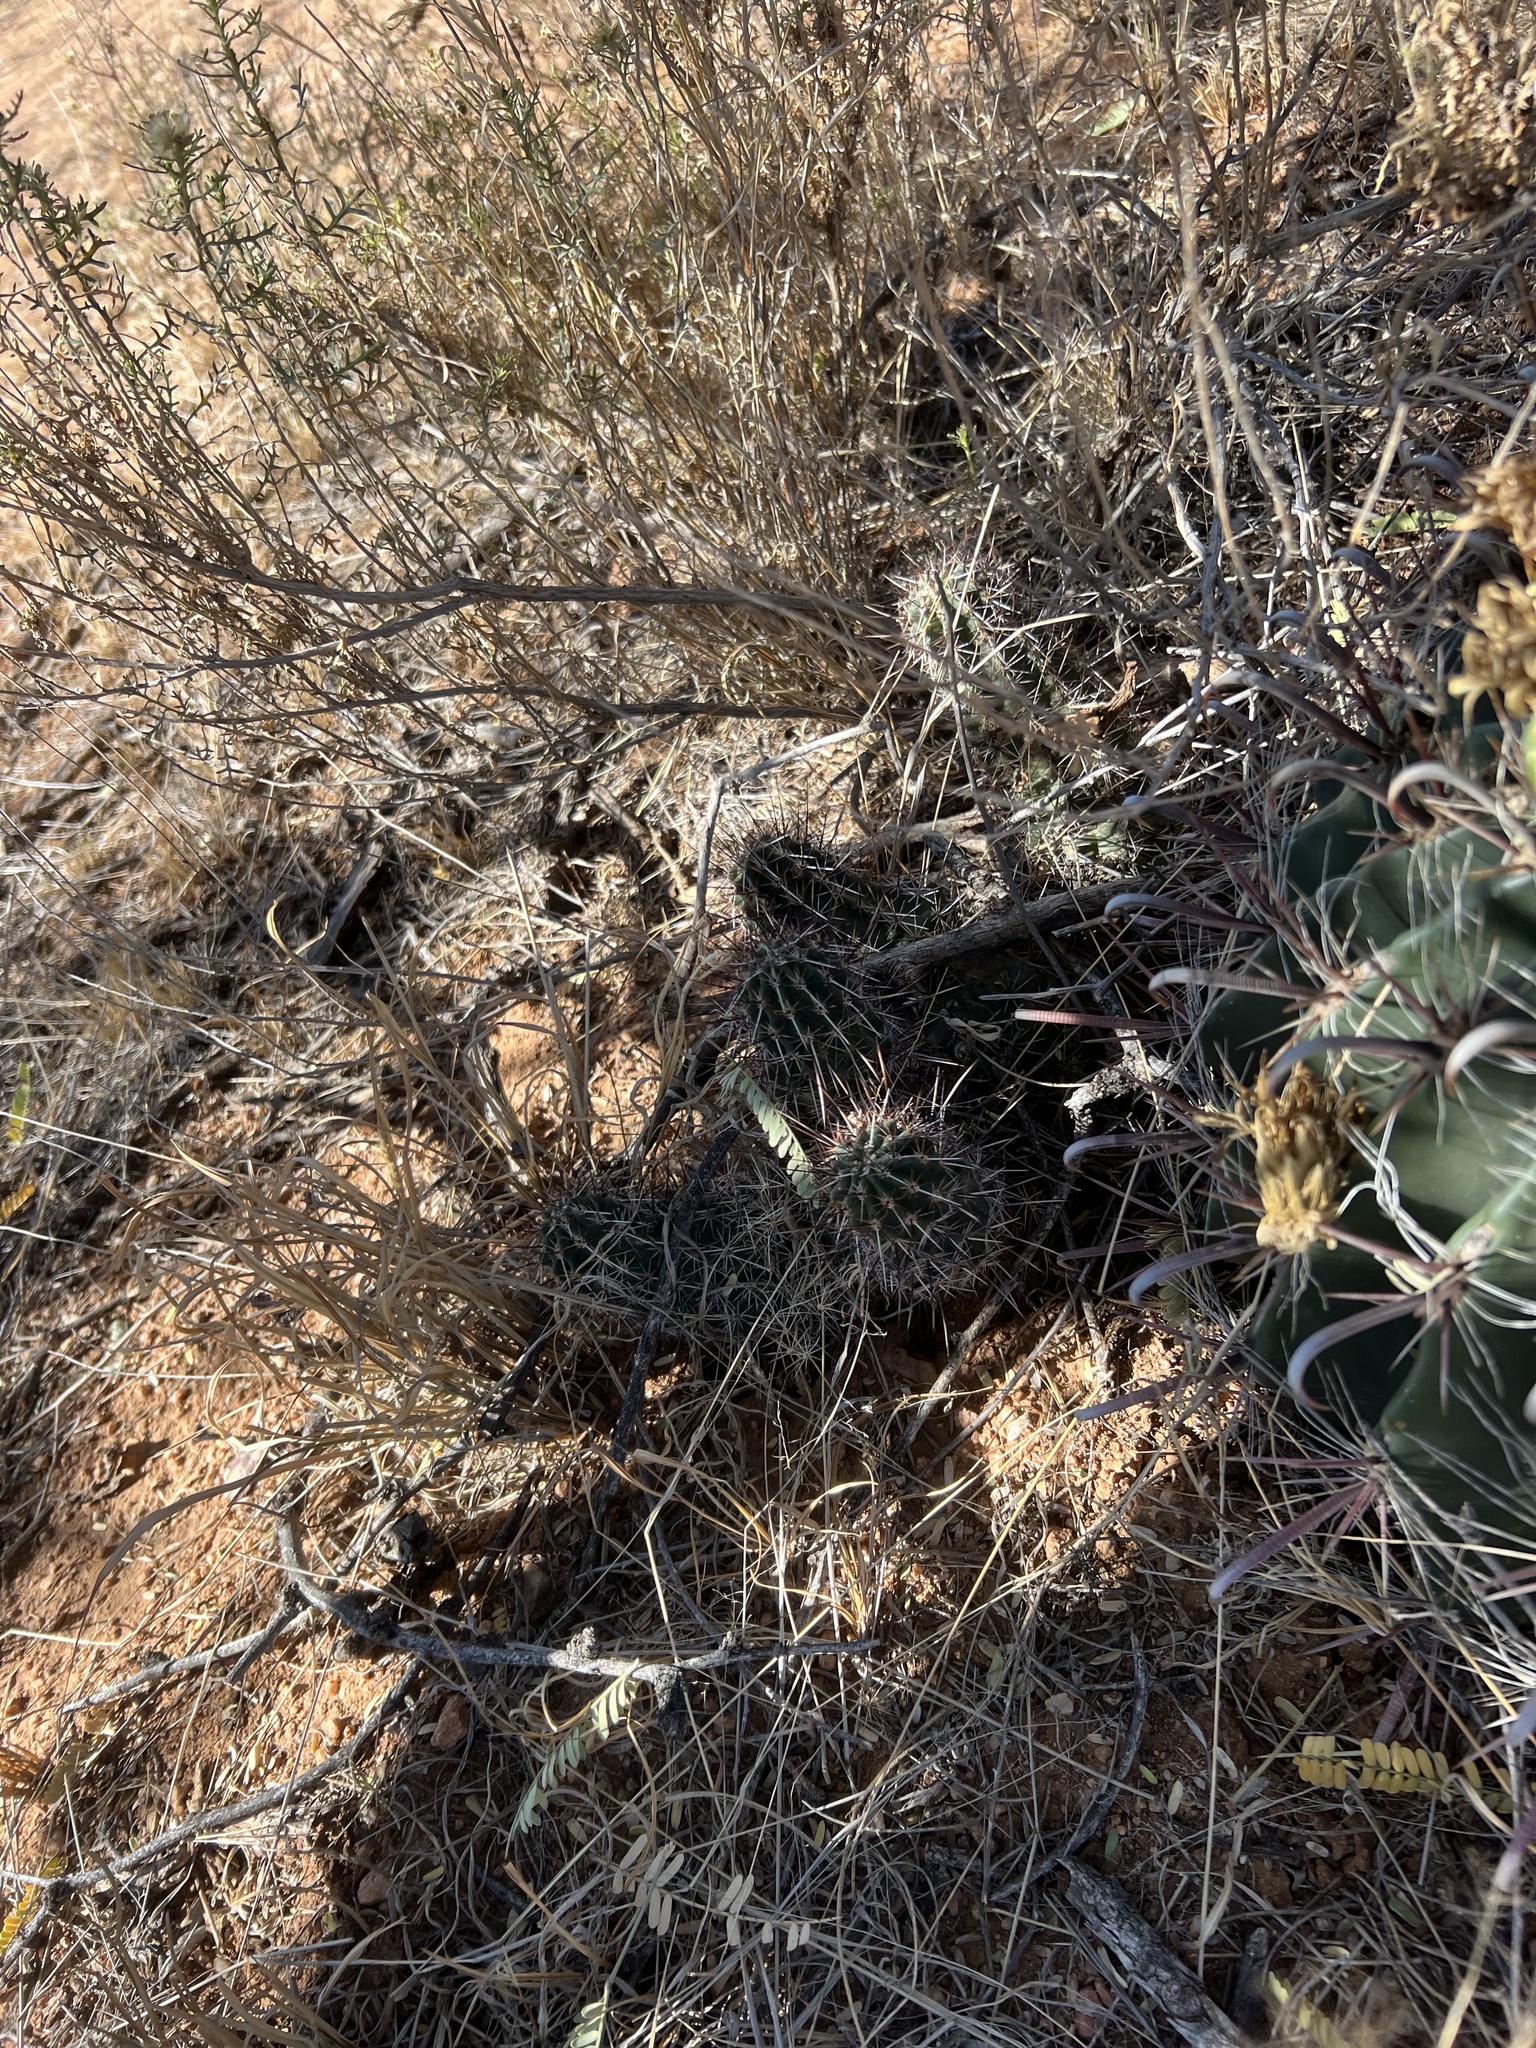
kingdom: Plantae
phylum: Tracheophyta
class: Magnoliopsida
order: Caryophyllales
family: Cactaceae
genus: Echinocereus
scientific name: Echinocereus fasciculatus
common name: Bundle hedgehog
